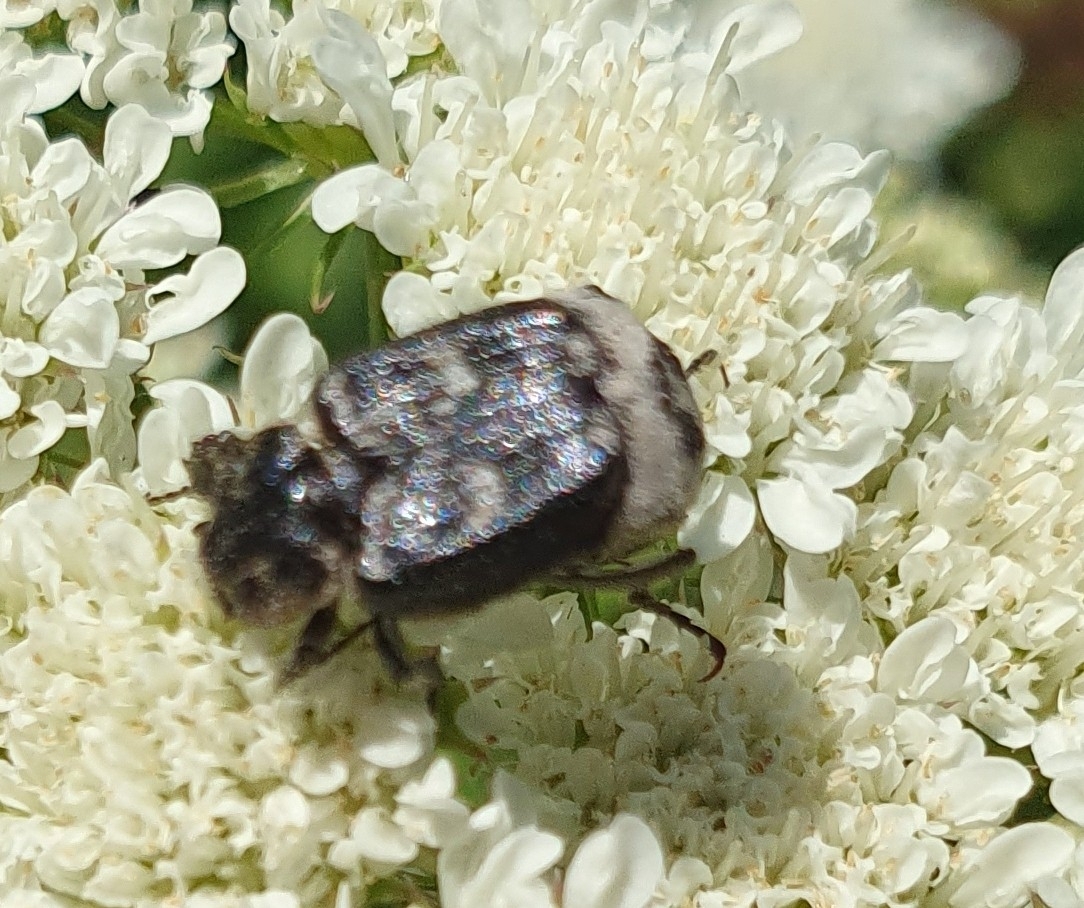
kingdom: Animalia
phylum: Arthropoda
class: Insecta
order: Coleoptera
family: Scarabaeidae
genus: Valgus
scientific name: Valgus hemipterus
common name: Bug flower chafer
